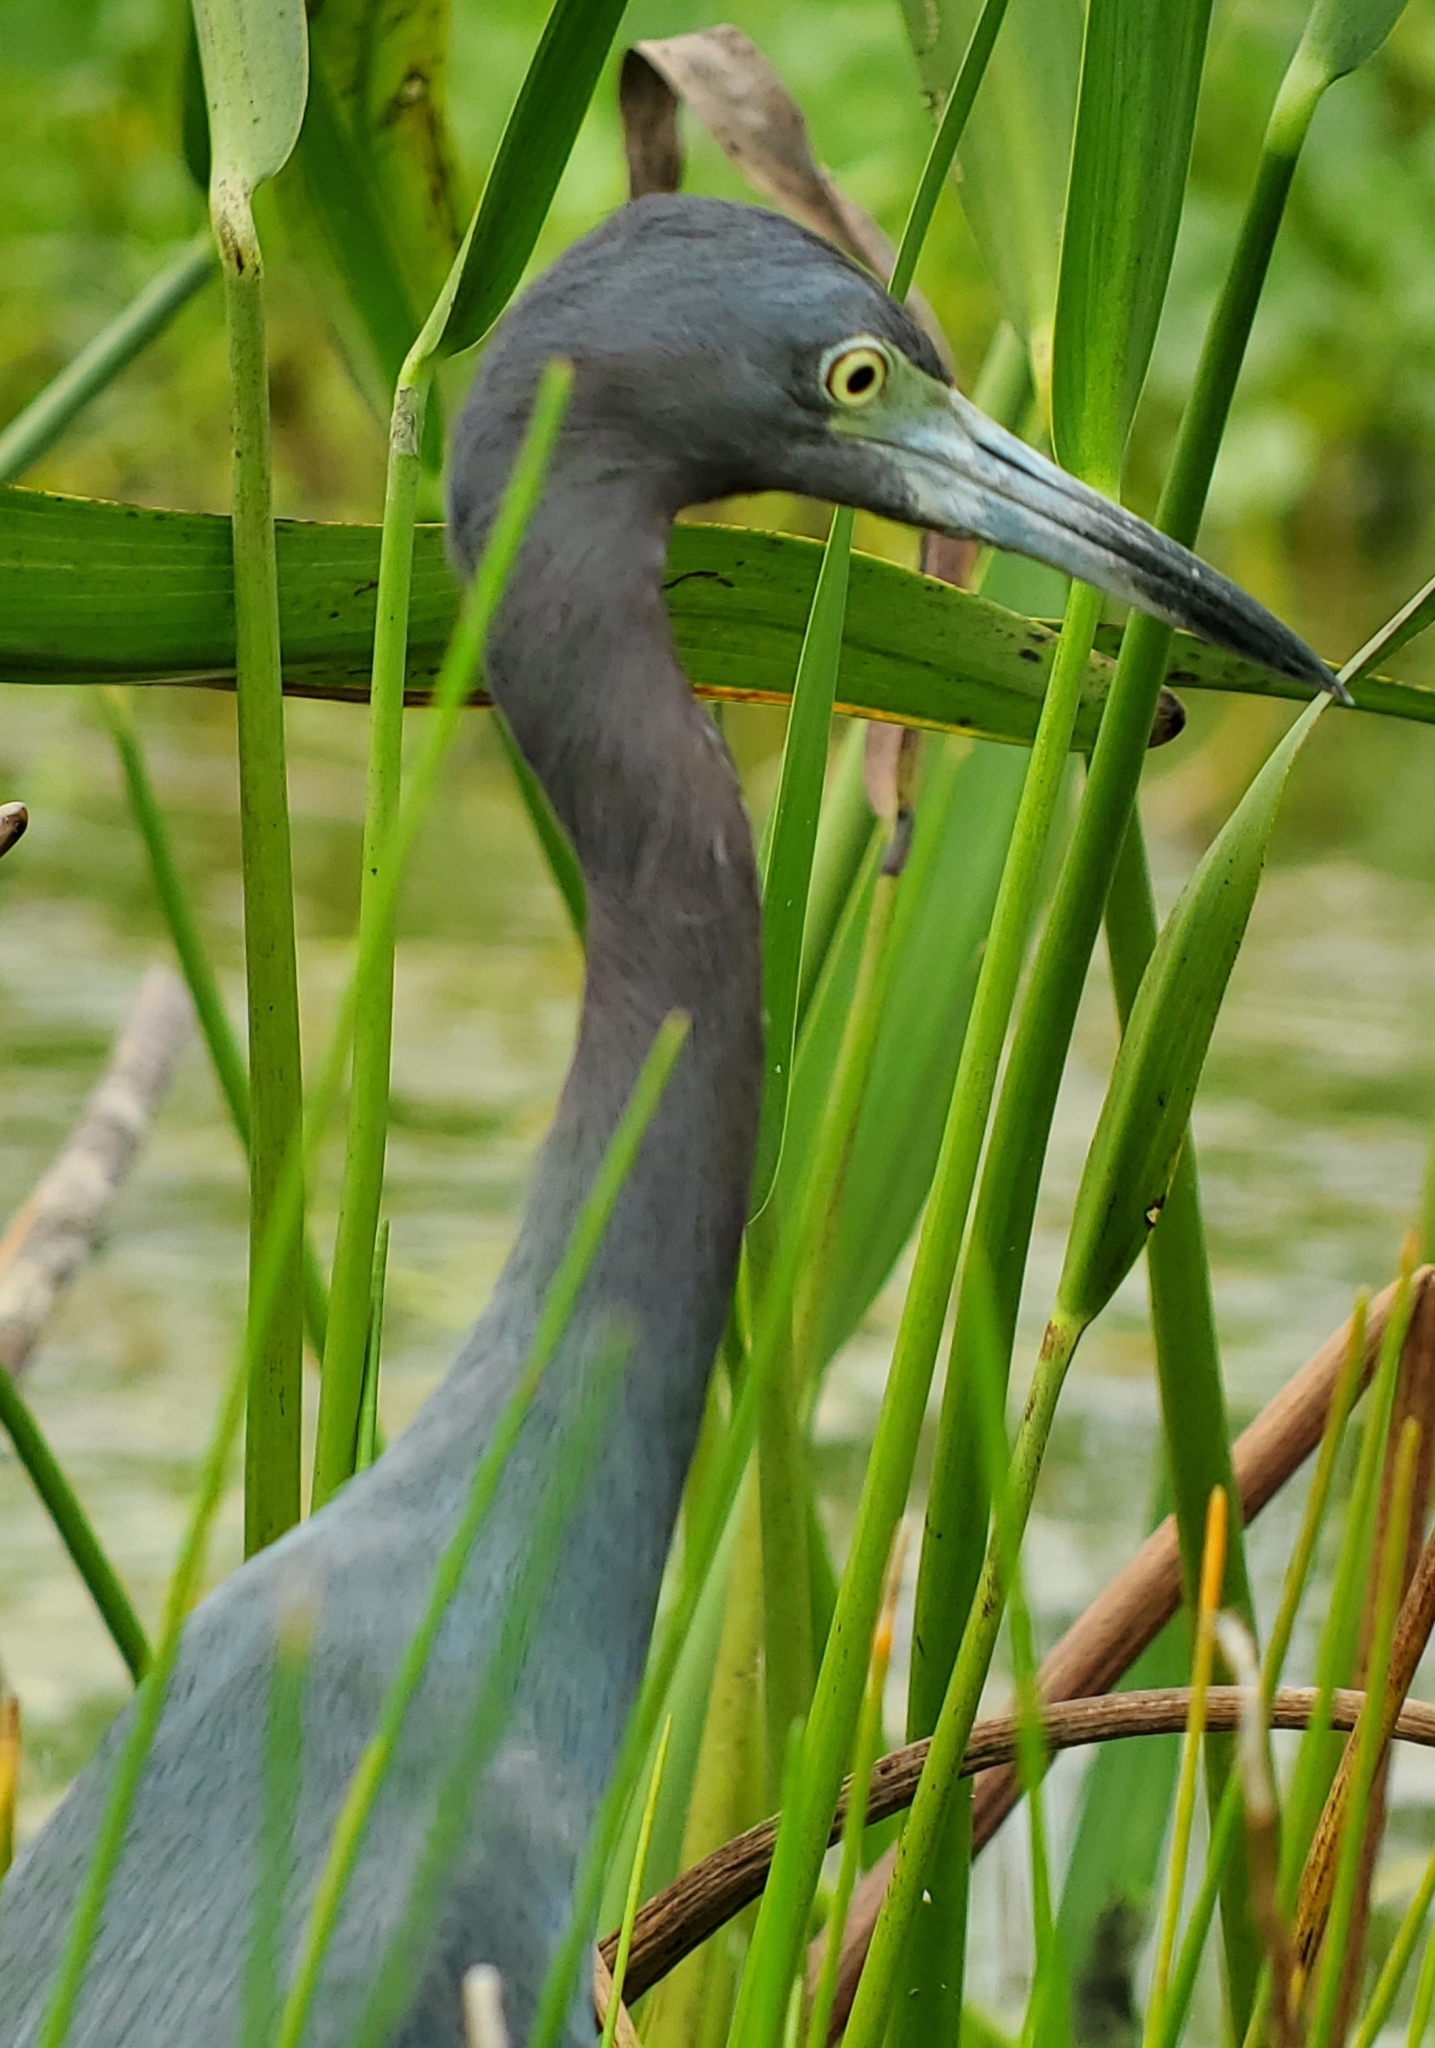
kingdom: Animalia
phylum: Chordata
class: Aves
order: Pelecaniformes
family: Ardeidae
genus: Egretta
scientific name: Egretta caerulea
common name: Little blue heron
